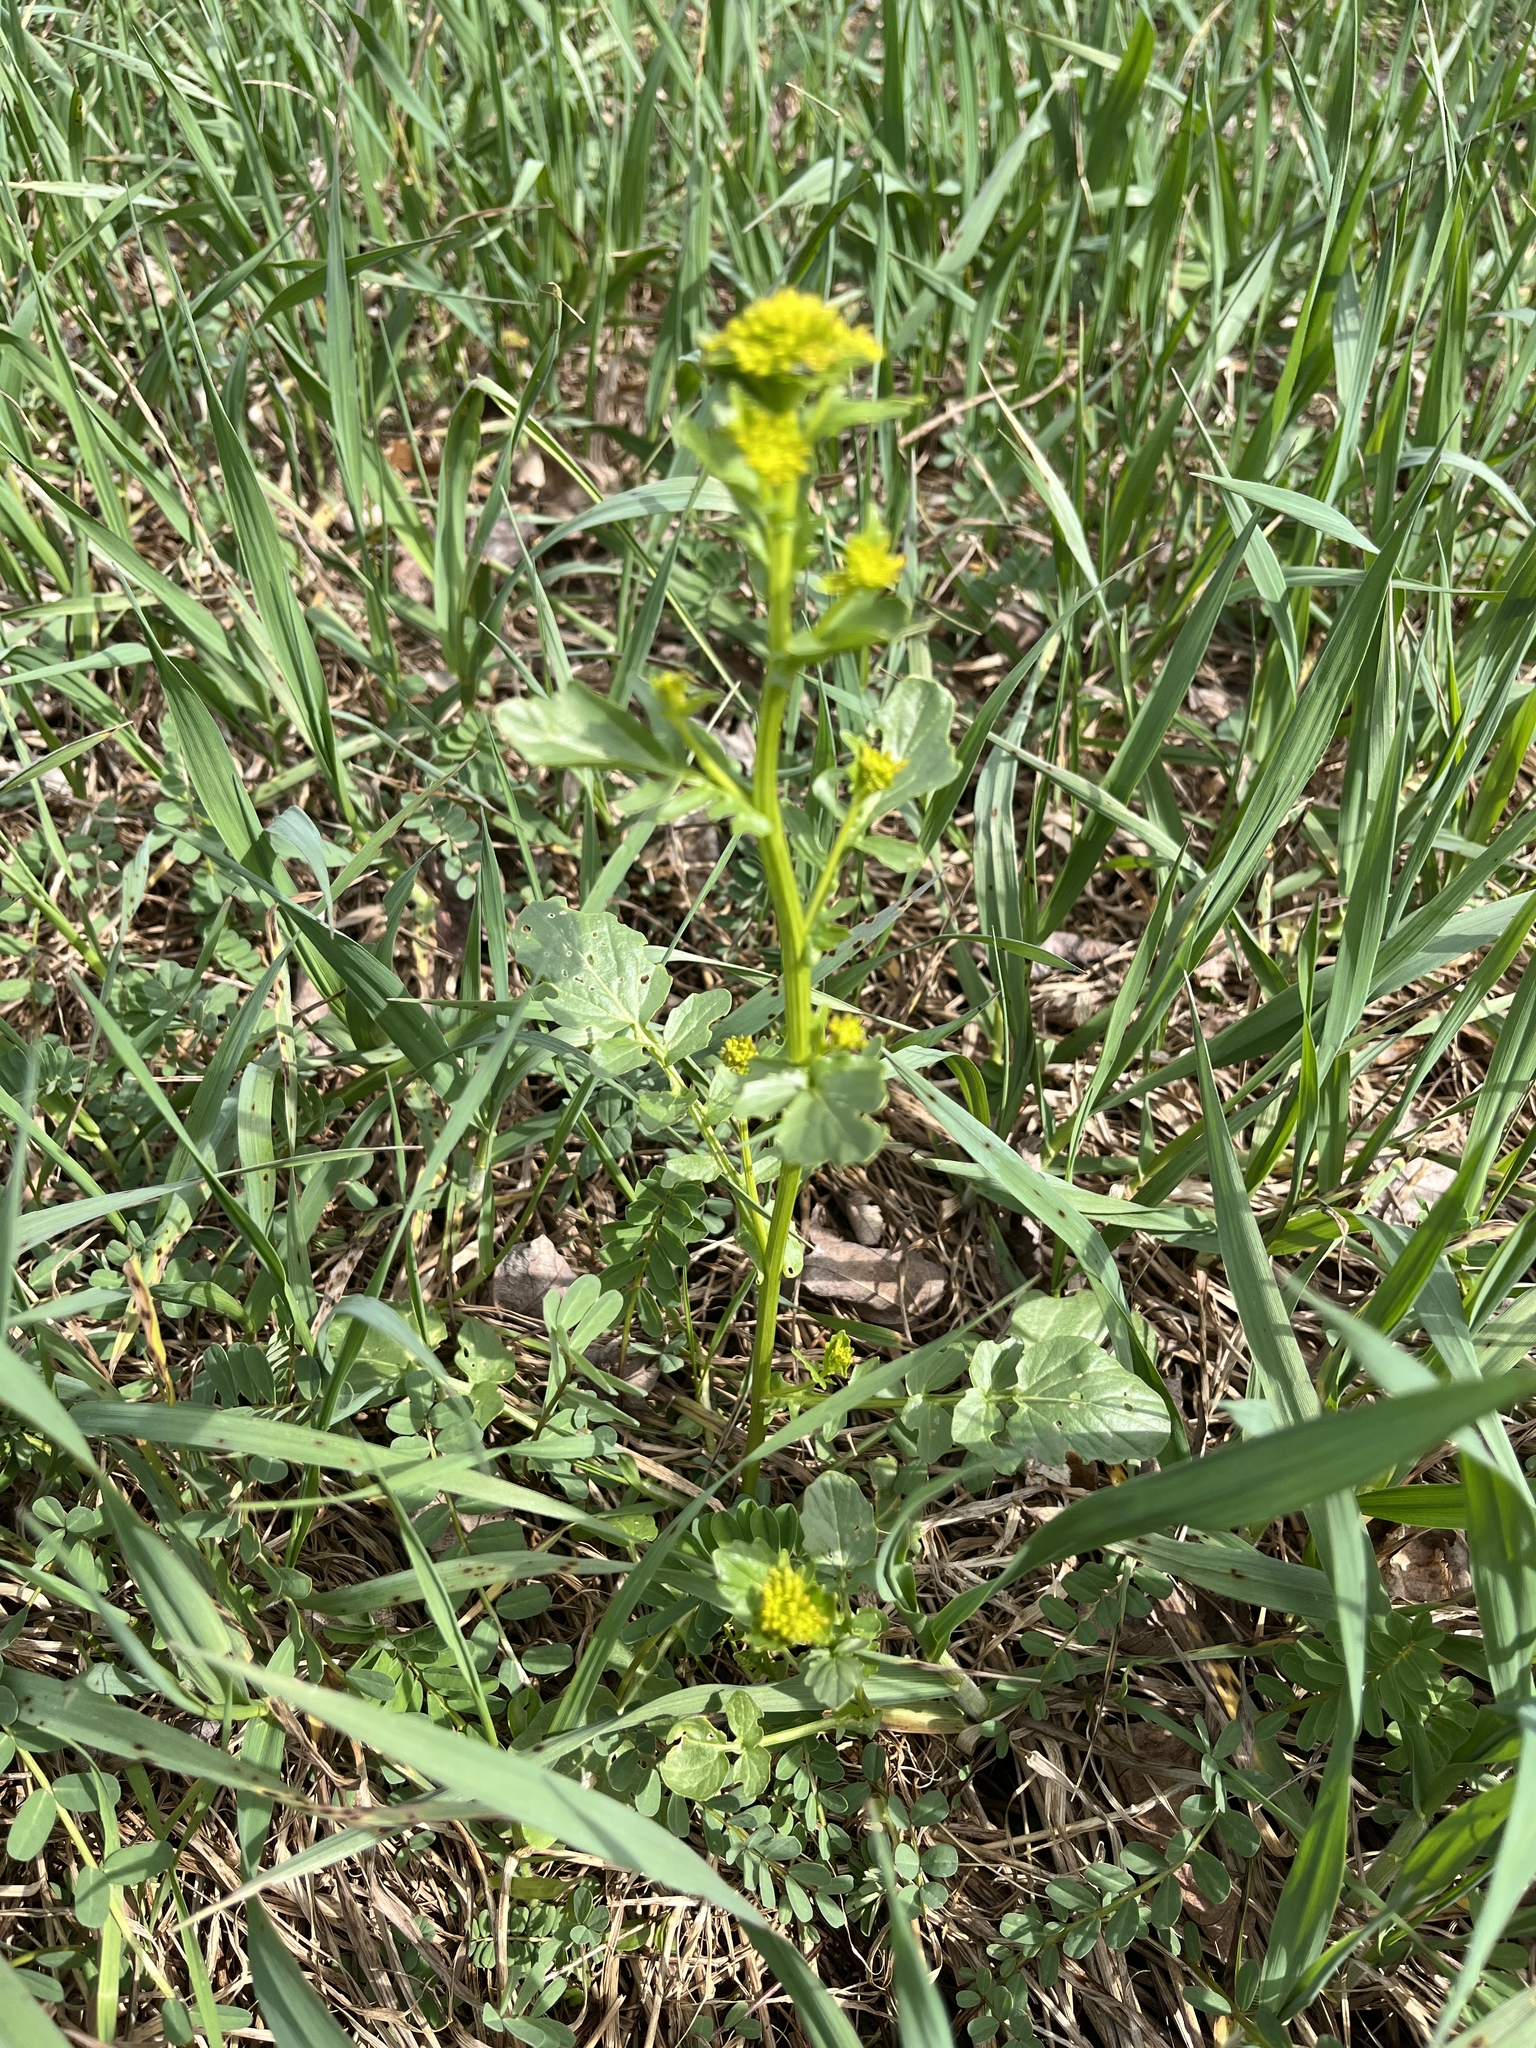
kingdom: Plantae
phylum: Tracheophyta
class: Magnoliopsida
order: Brassicales
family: Brassicaceae
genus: Barbarea
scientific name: Barbarea vulgaris
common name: Cressy-greens
